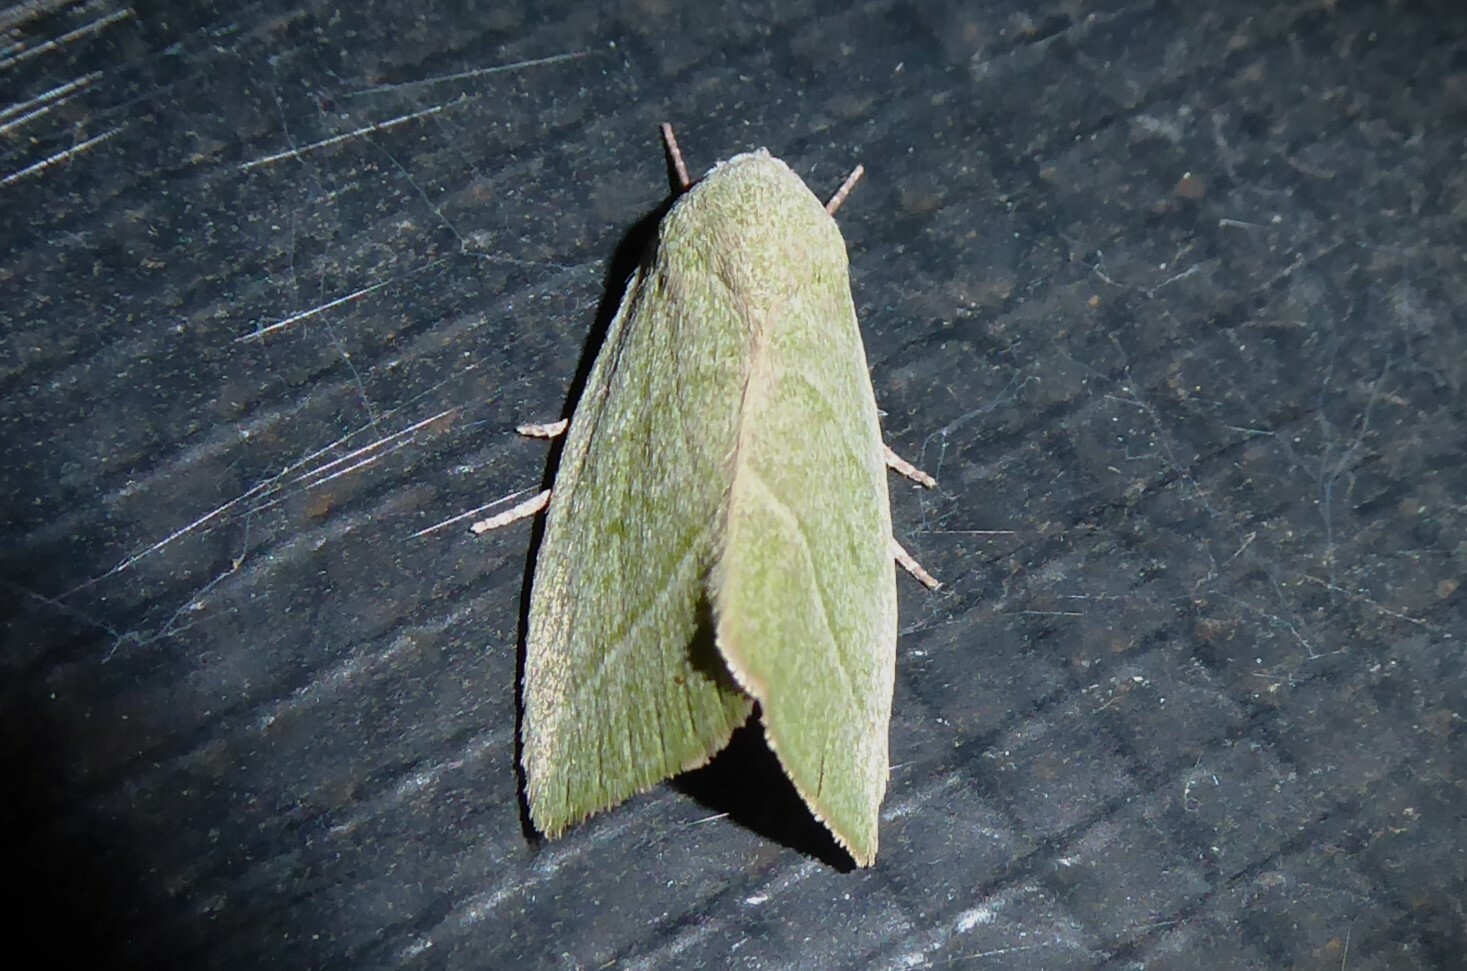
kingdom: Animalia
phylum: Arthropoda
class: Insecta
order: Lepidoptera
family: Nolidae
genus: Earias
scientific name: Earias subviridis
